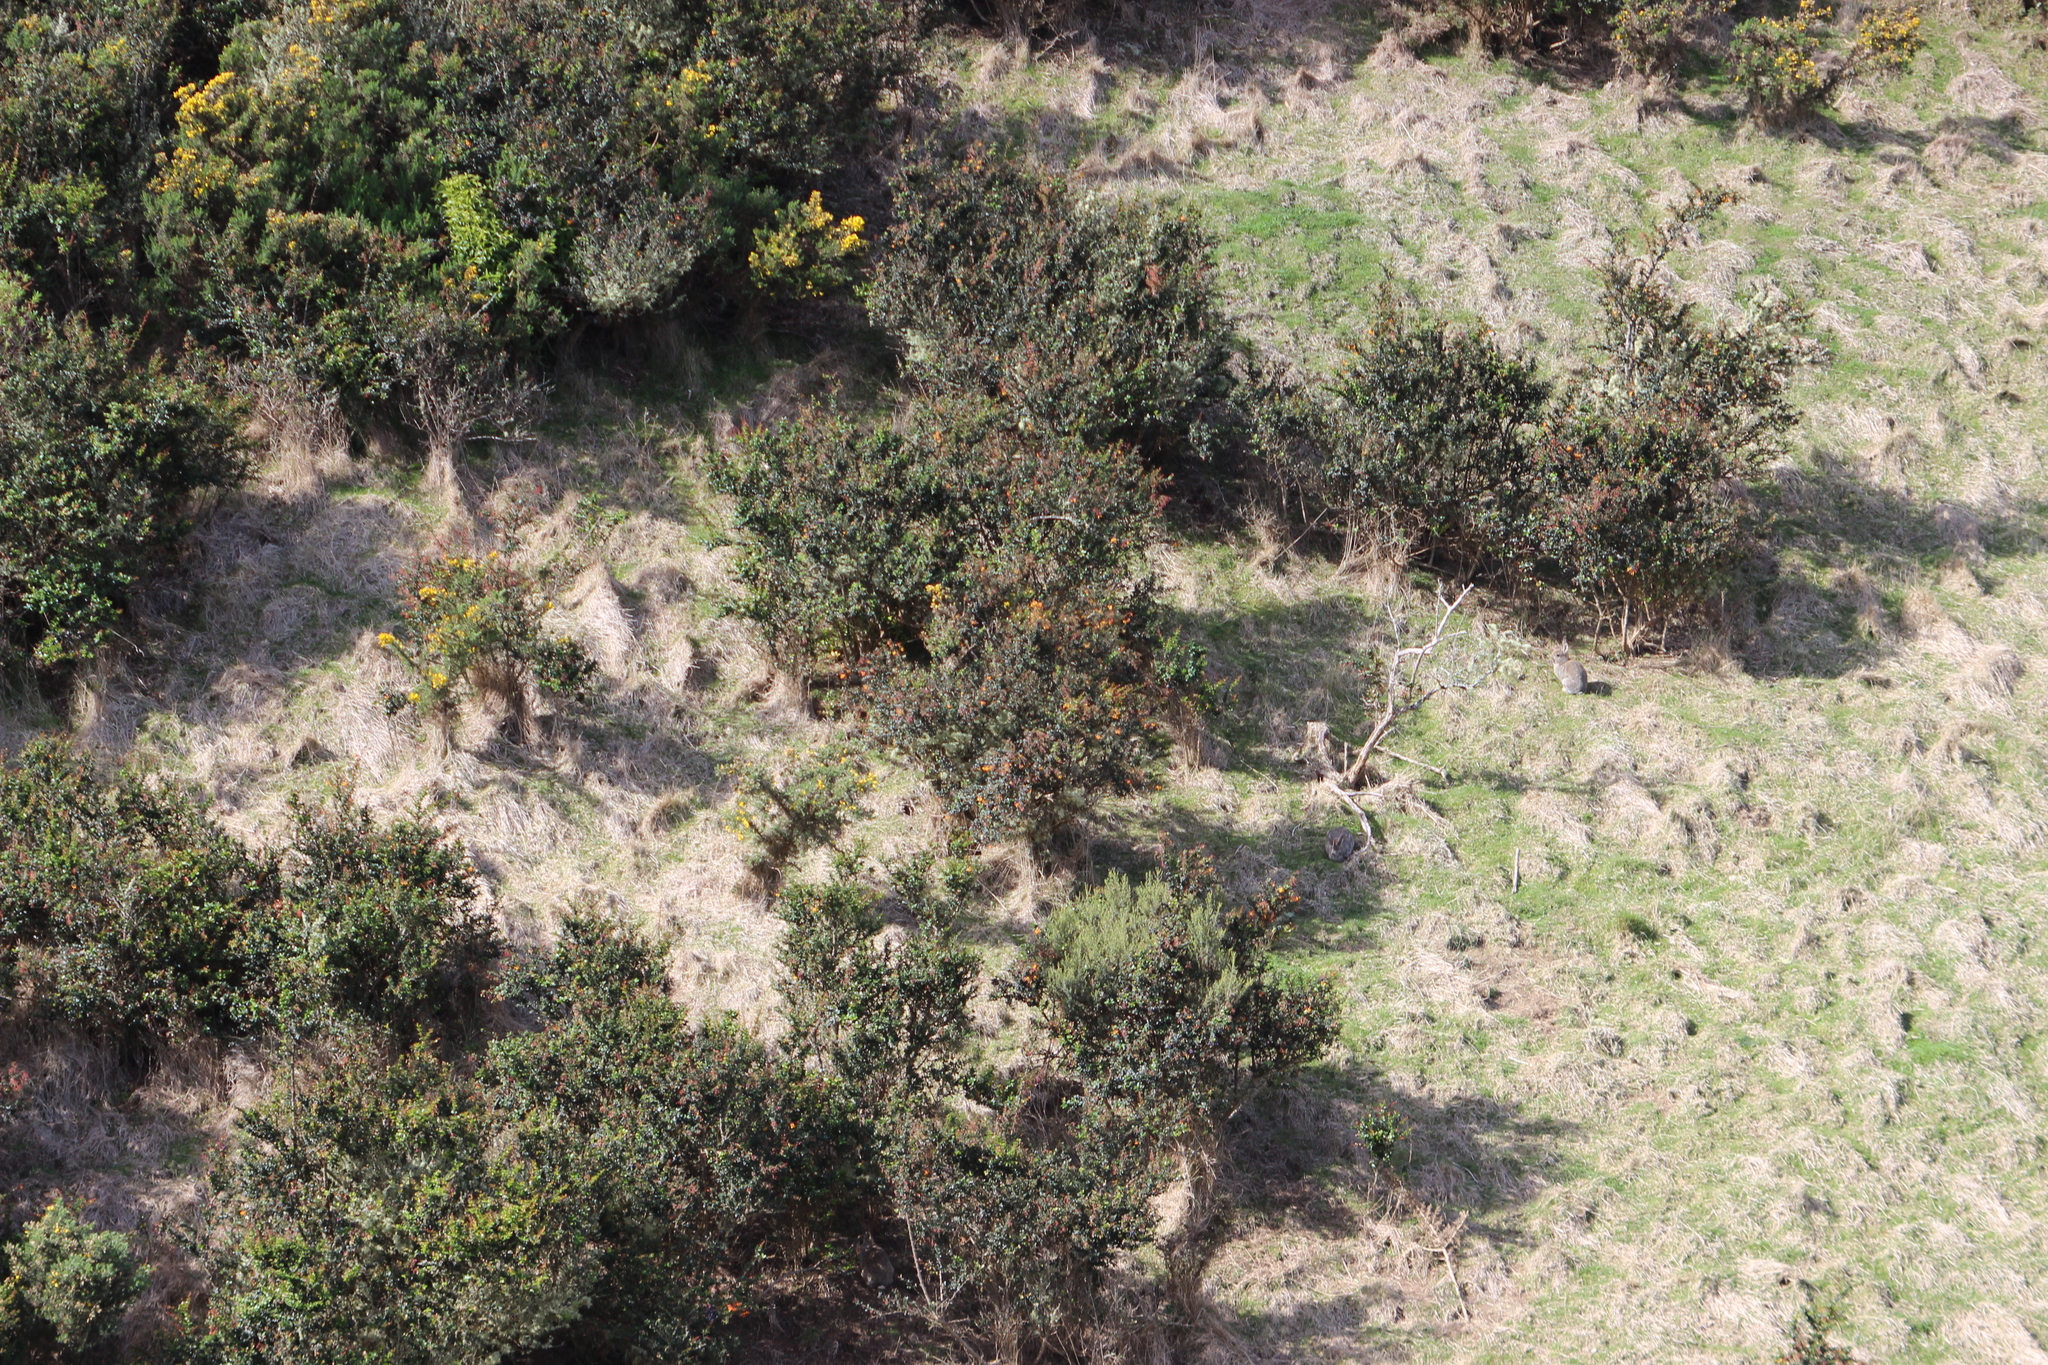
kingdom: Animalia
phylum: Chordata
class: Mammalia
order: Lagomorpha
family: Leporidae
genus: Oryctolagus
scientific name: Oryctolagus cuniculus
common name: European rabbit
